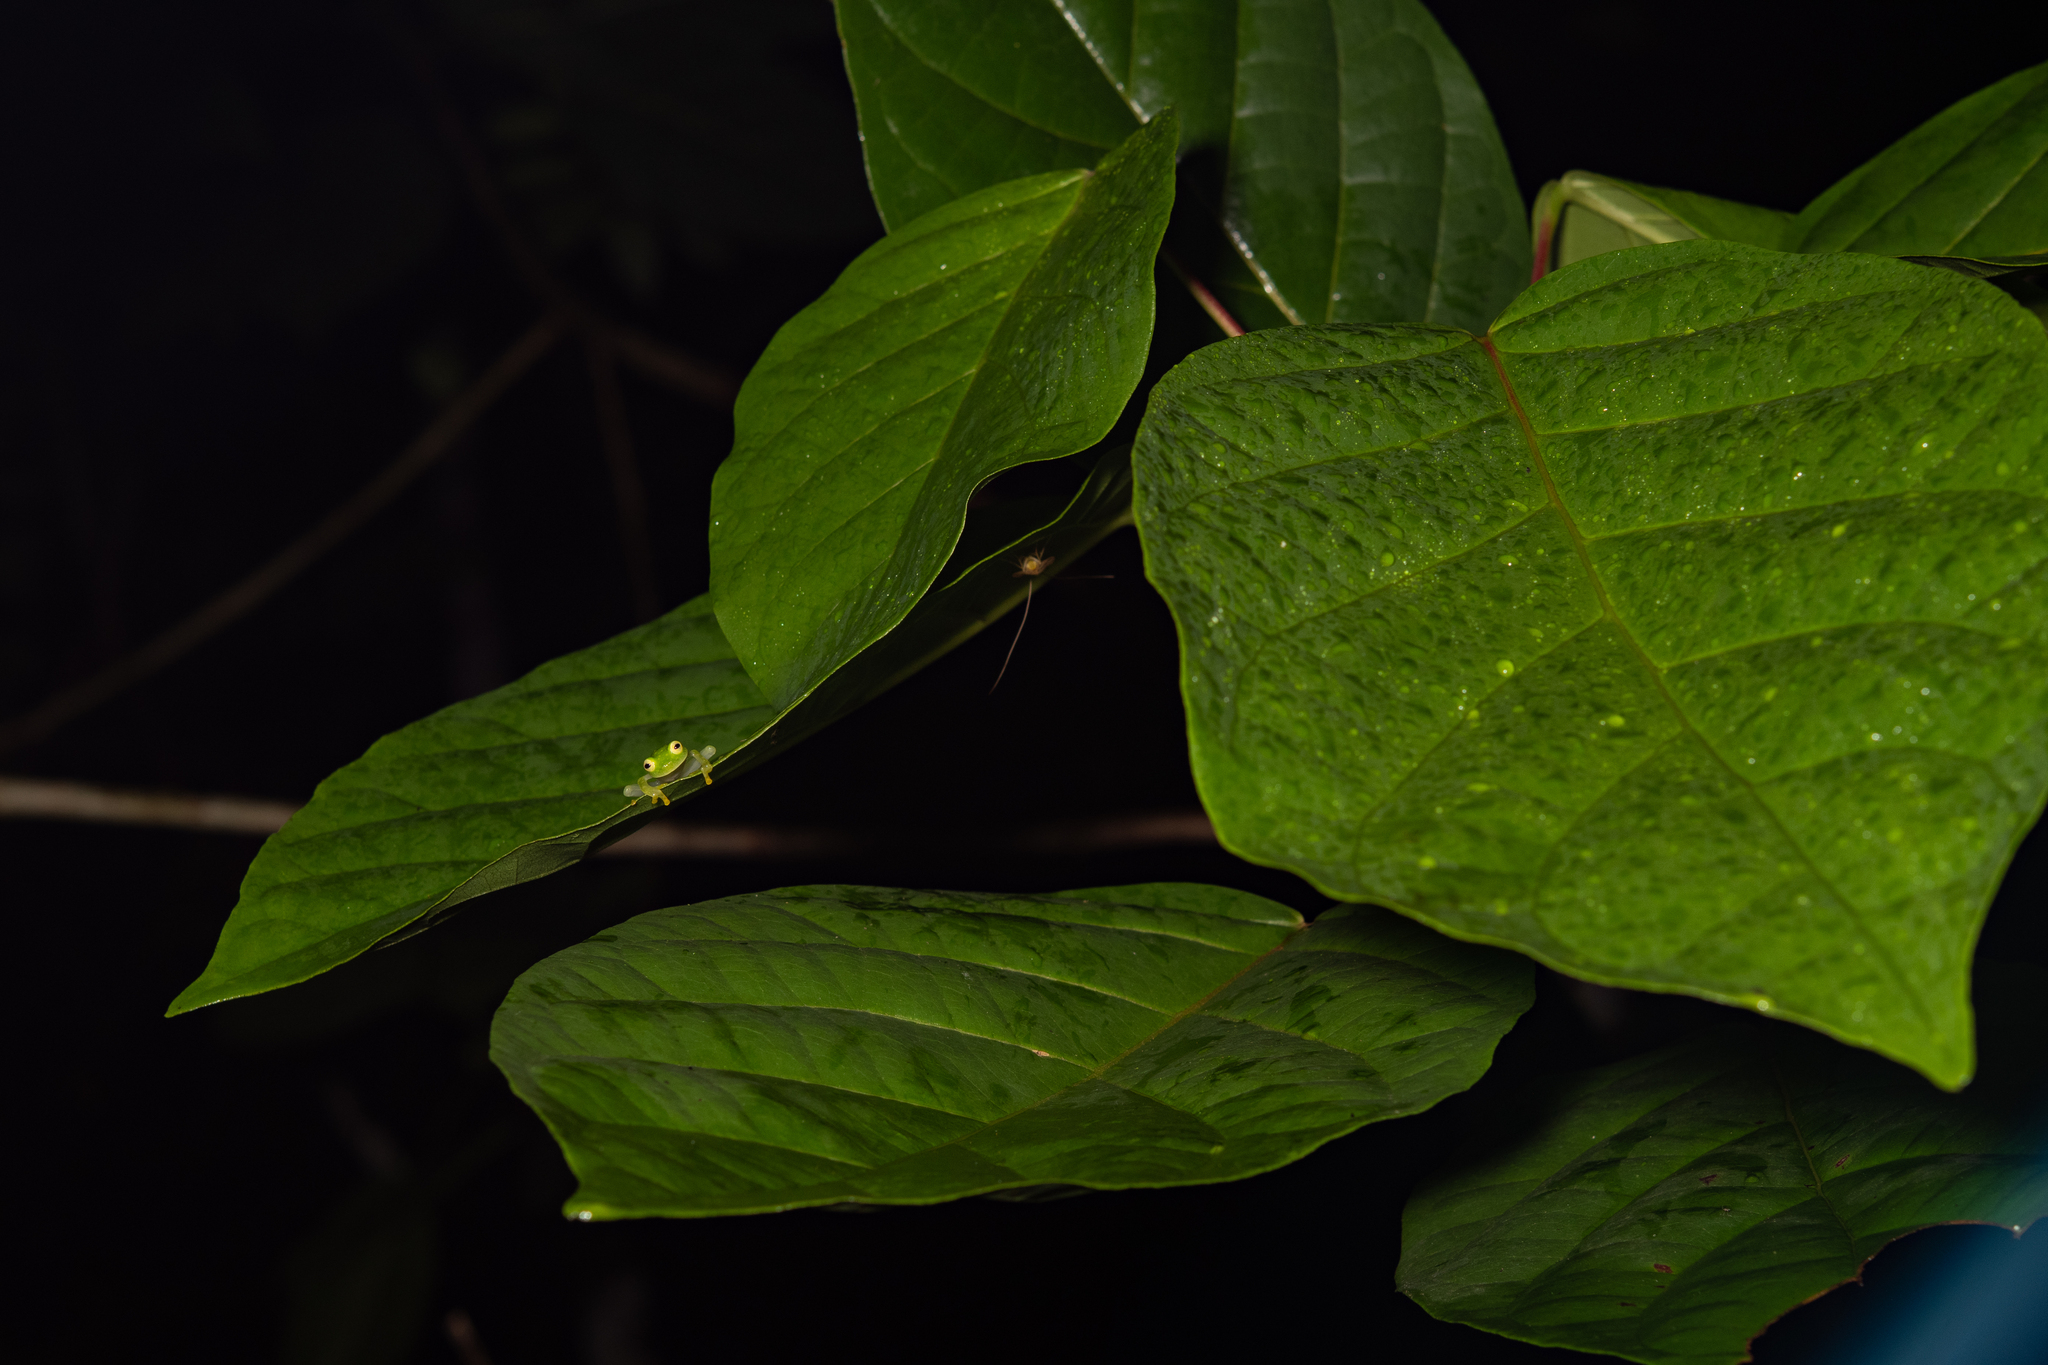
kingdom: Animalia
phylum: Chordata
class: Amphibia
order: Anura
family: Centrolenidae
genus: Hyalinobatrachium
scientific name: Hyalinobatrachium
